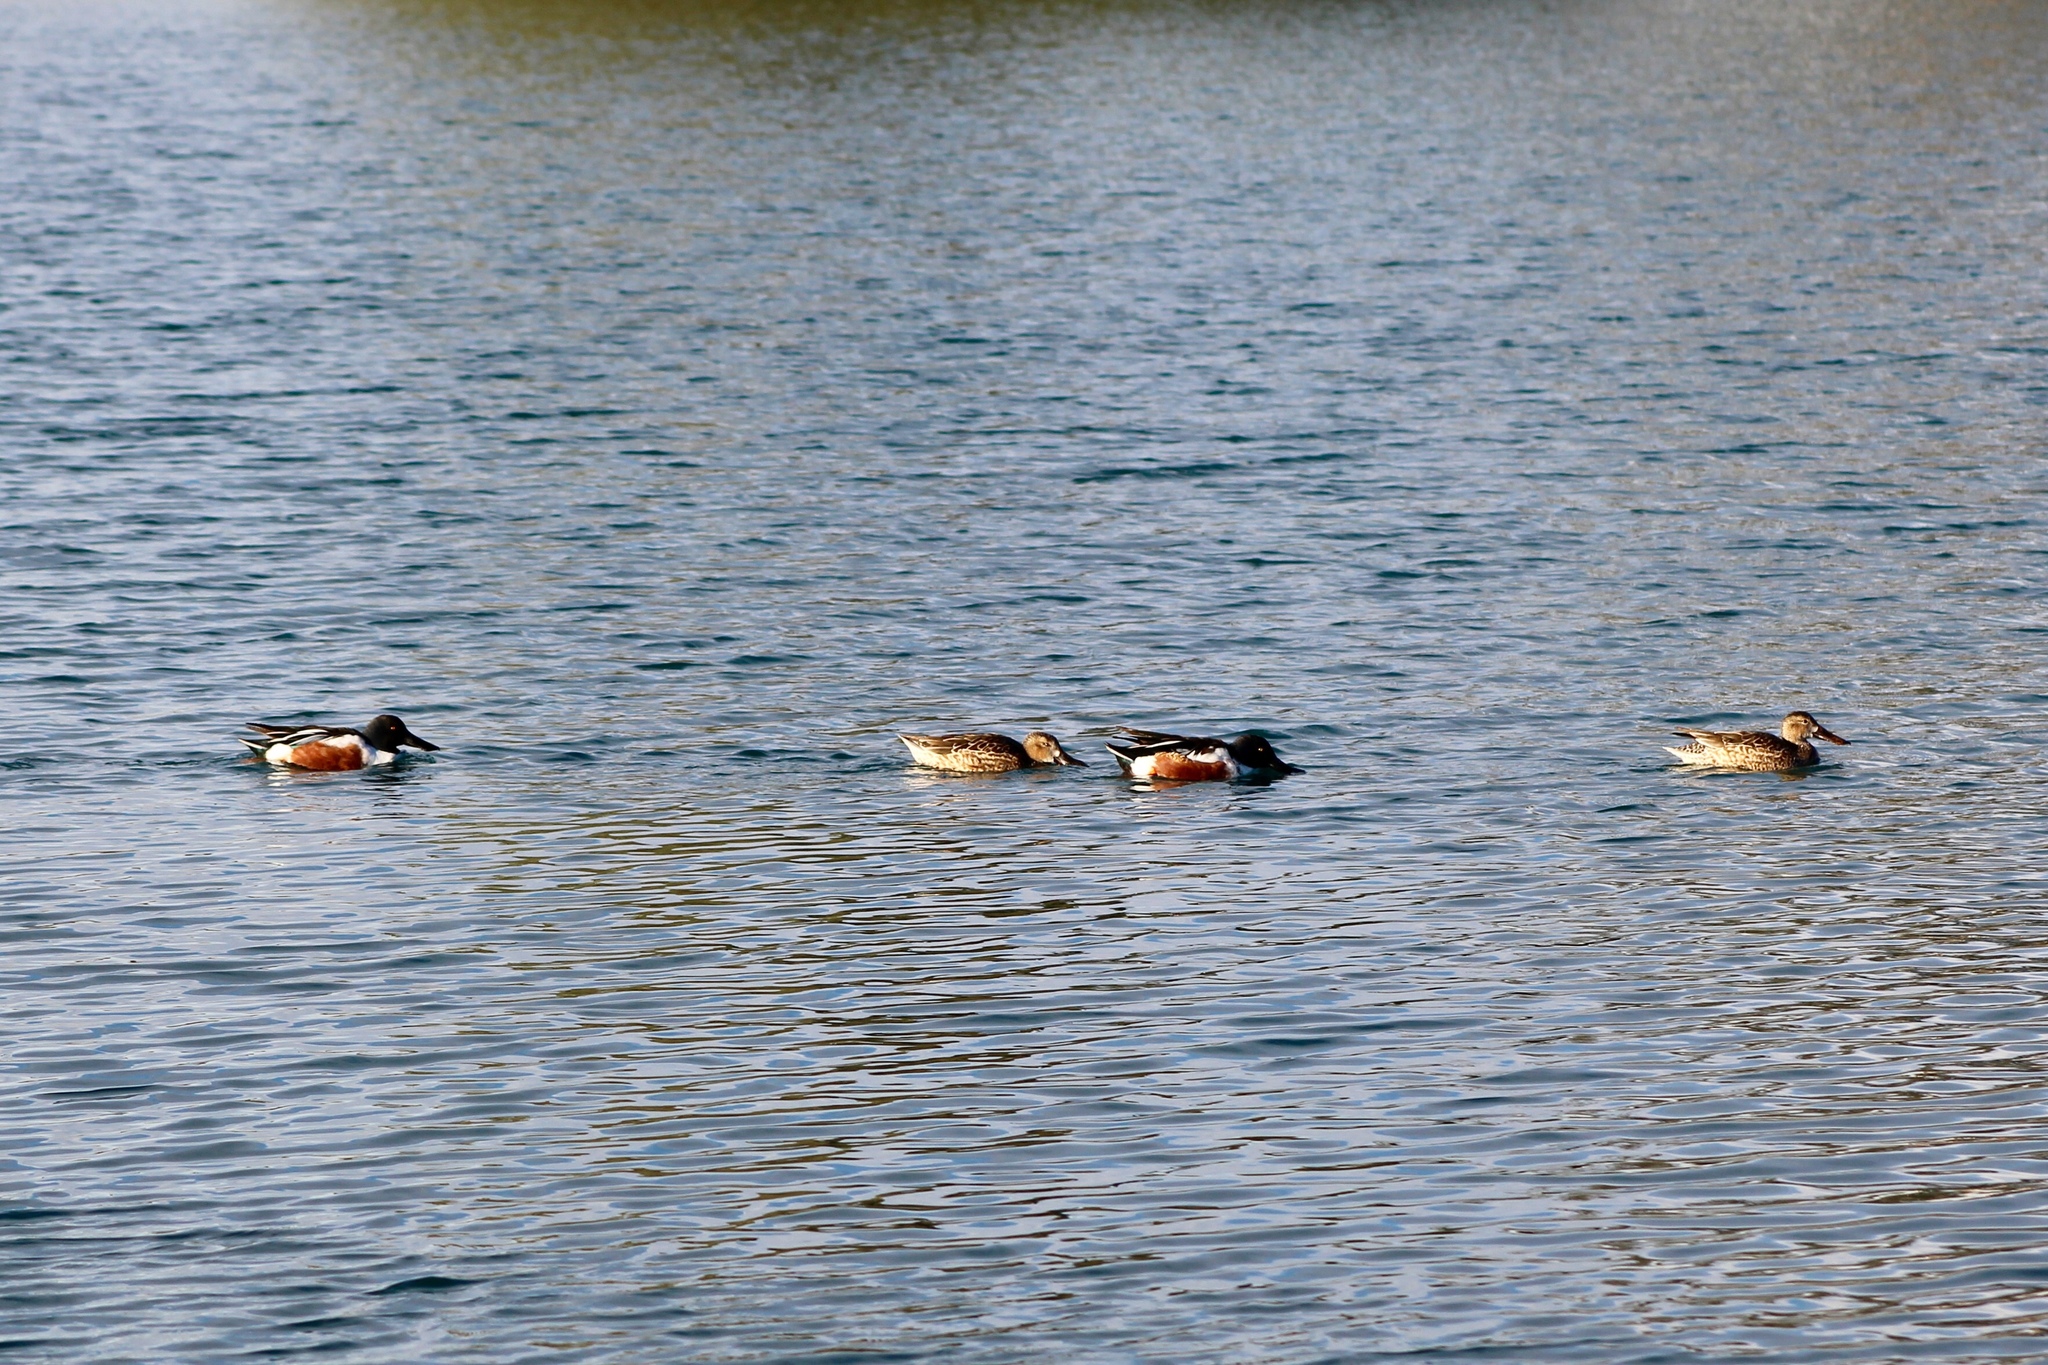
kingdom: Animalia
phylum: Chordata
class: Aves
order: Anseriformes
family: Anatidae
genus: Spatula
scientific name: Spatula clypeata
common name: Northern shoveler
